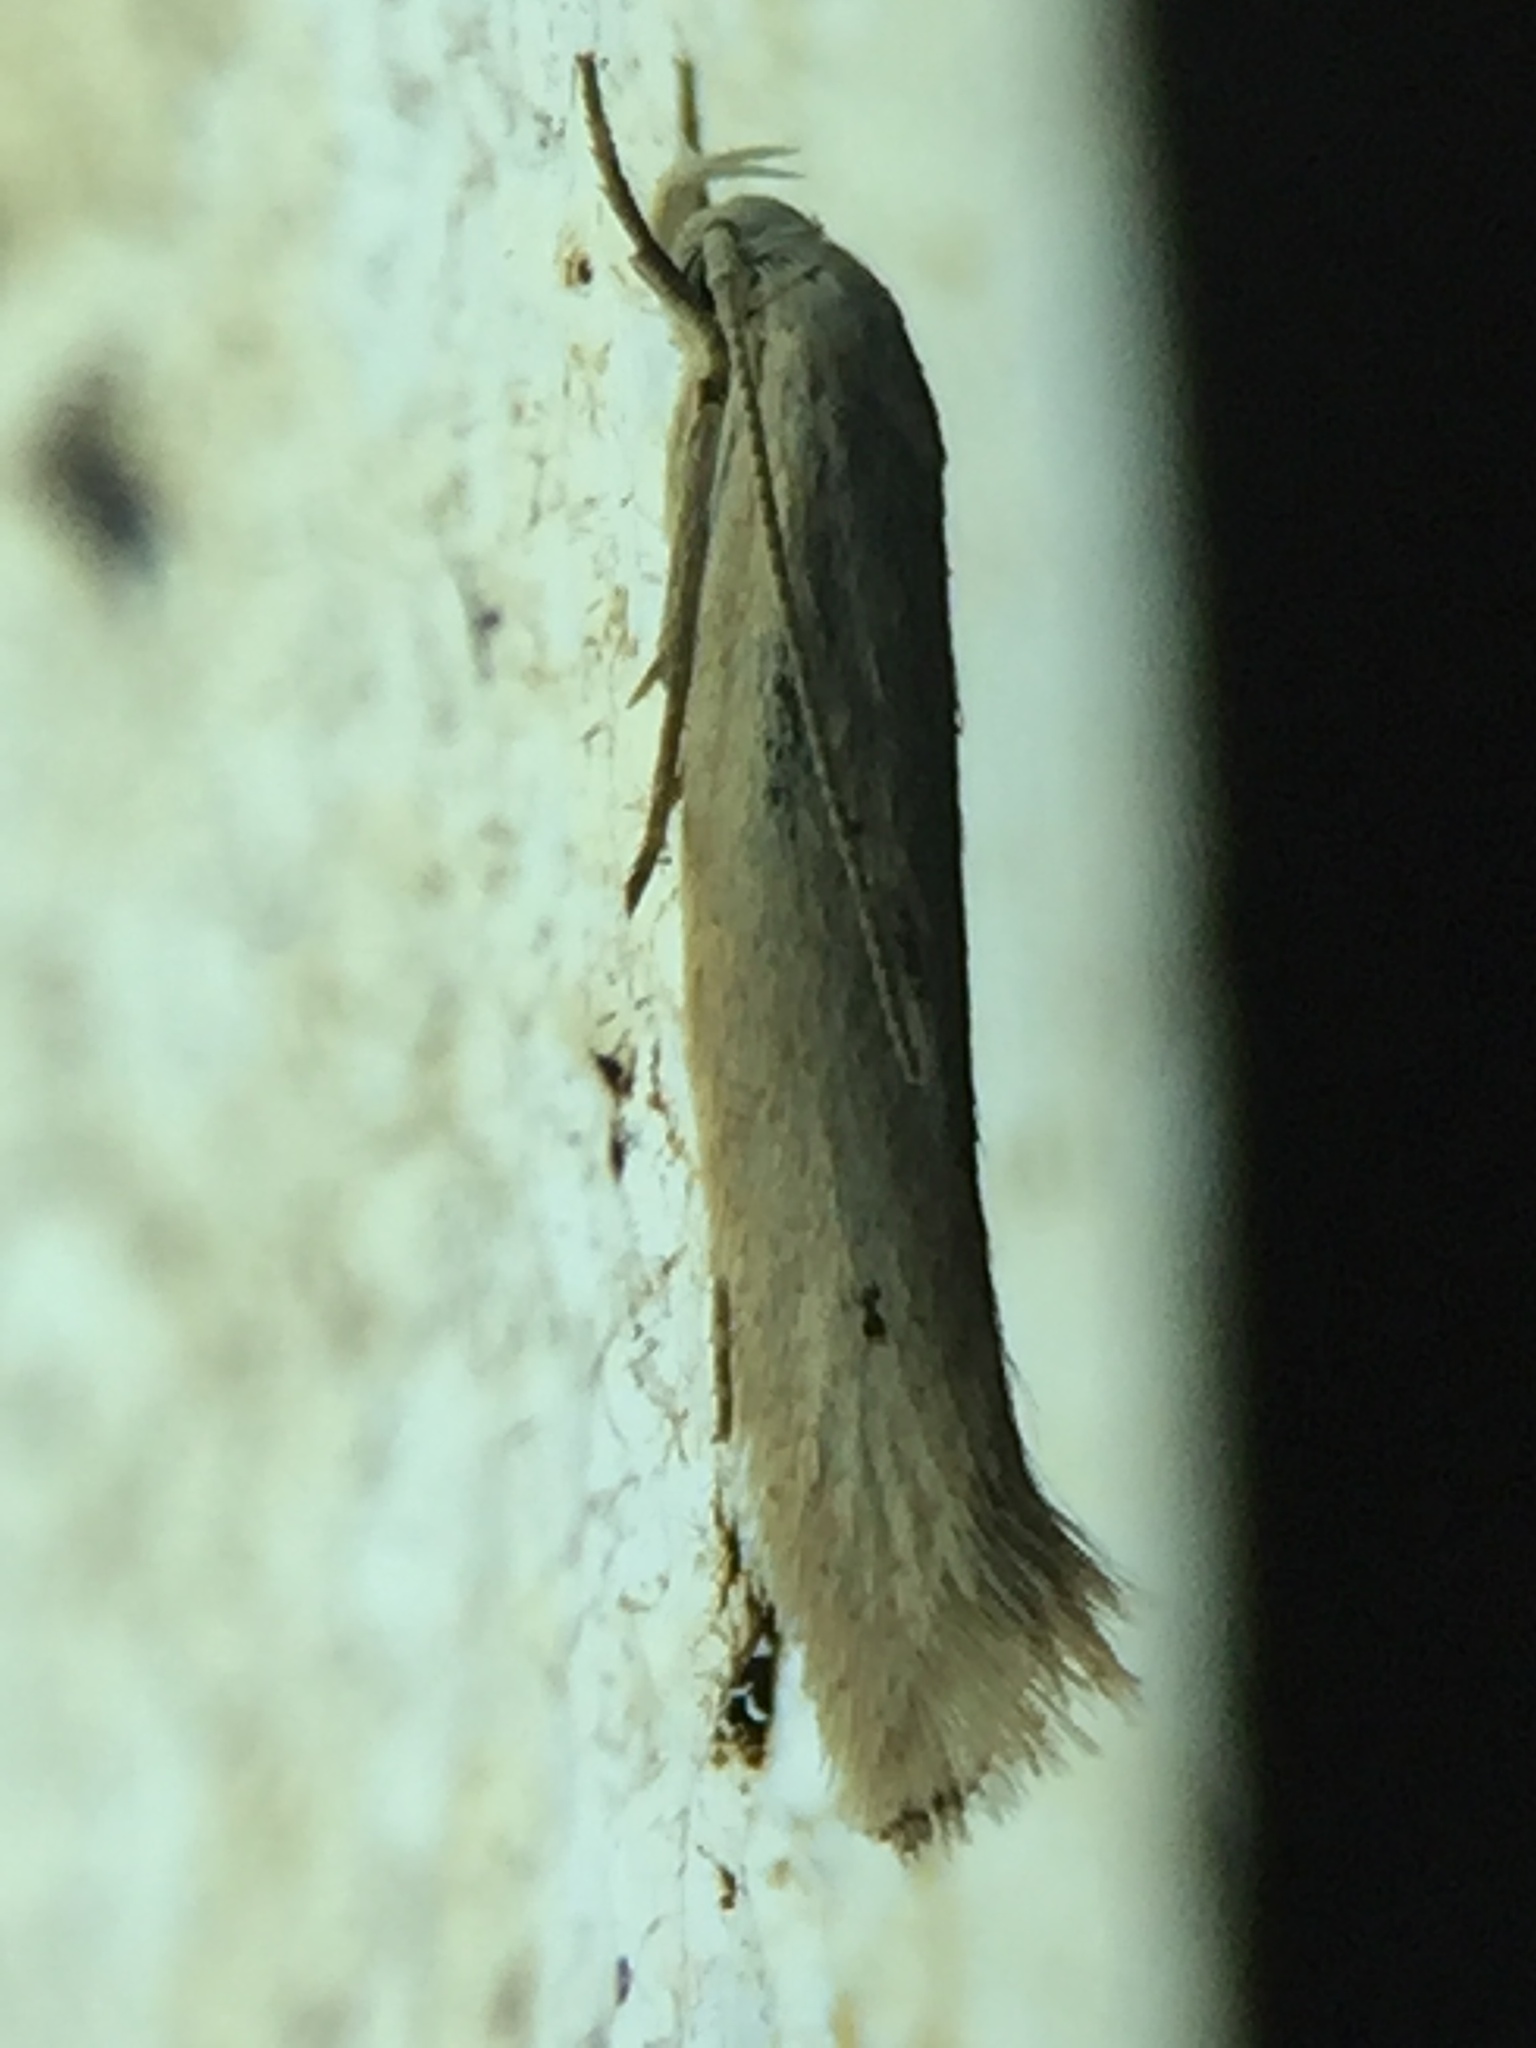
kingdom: Animalia
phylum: Arthropoda
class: Insecta
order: Lepidoptera
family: Elachistidae
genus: Elachista
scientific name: Elachista gerasmia
